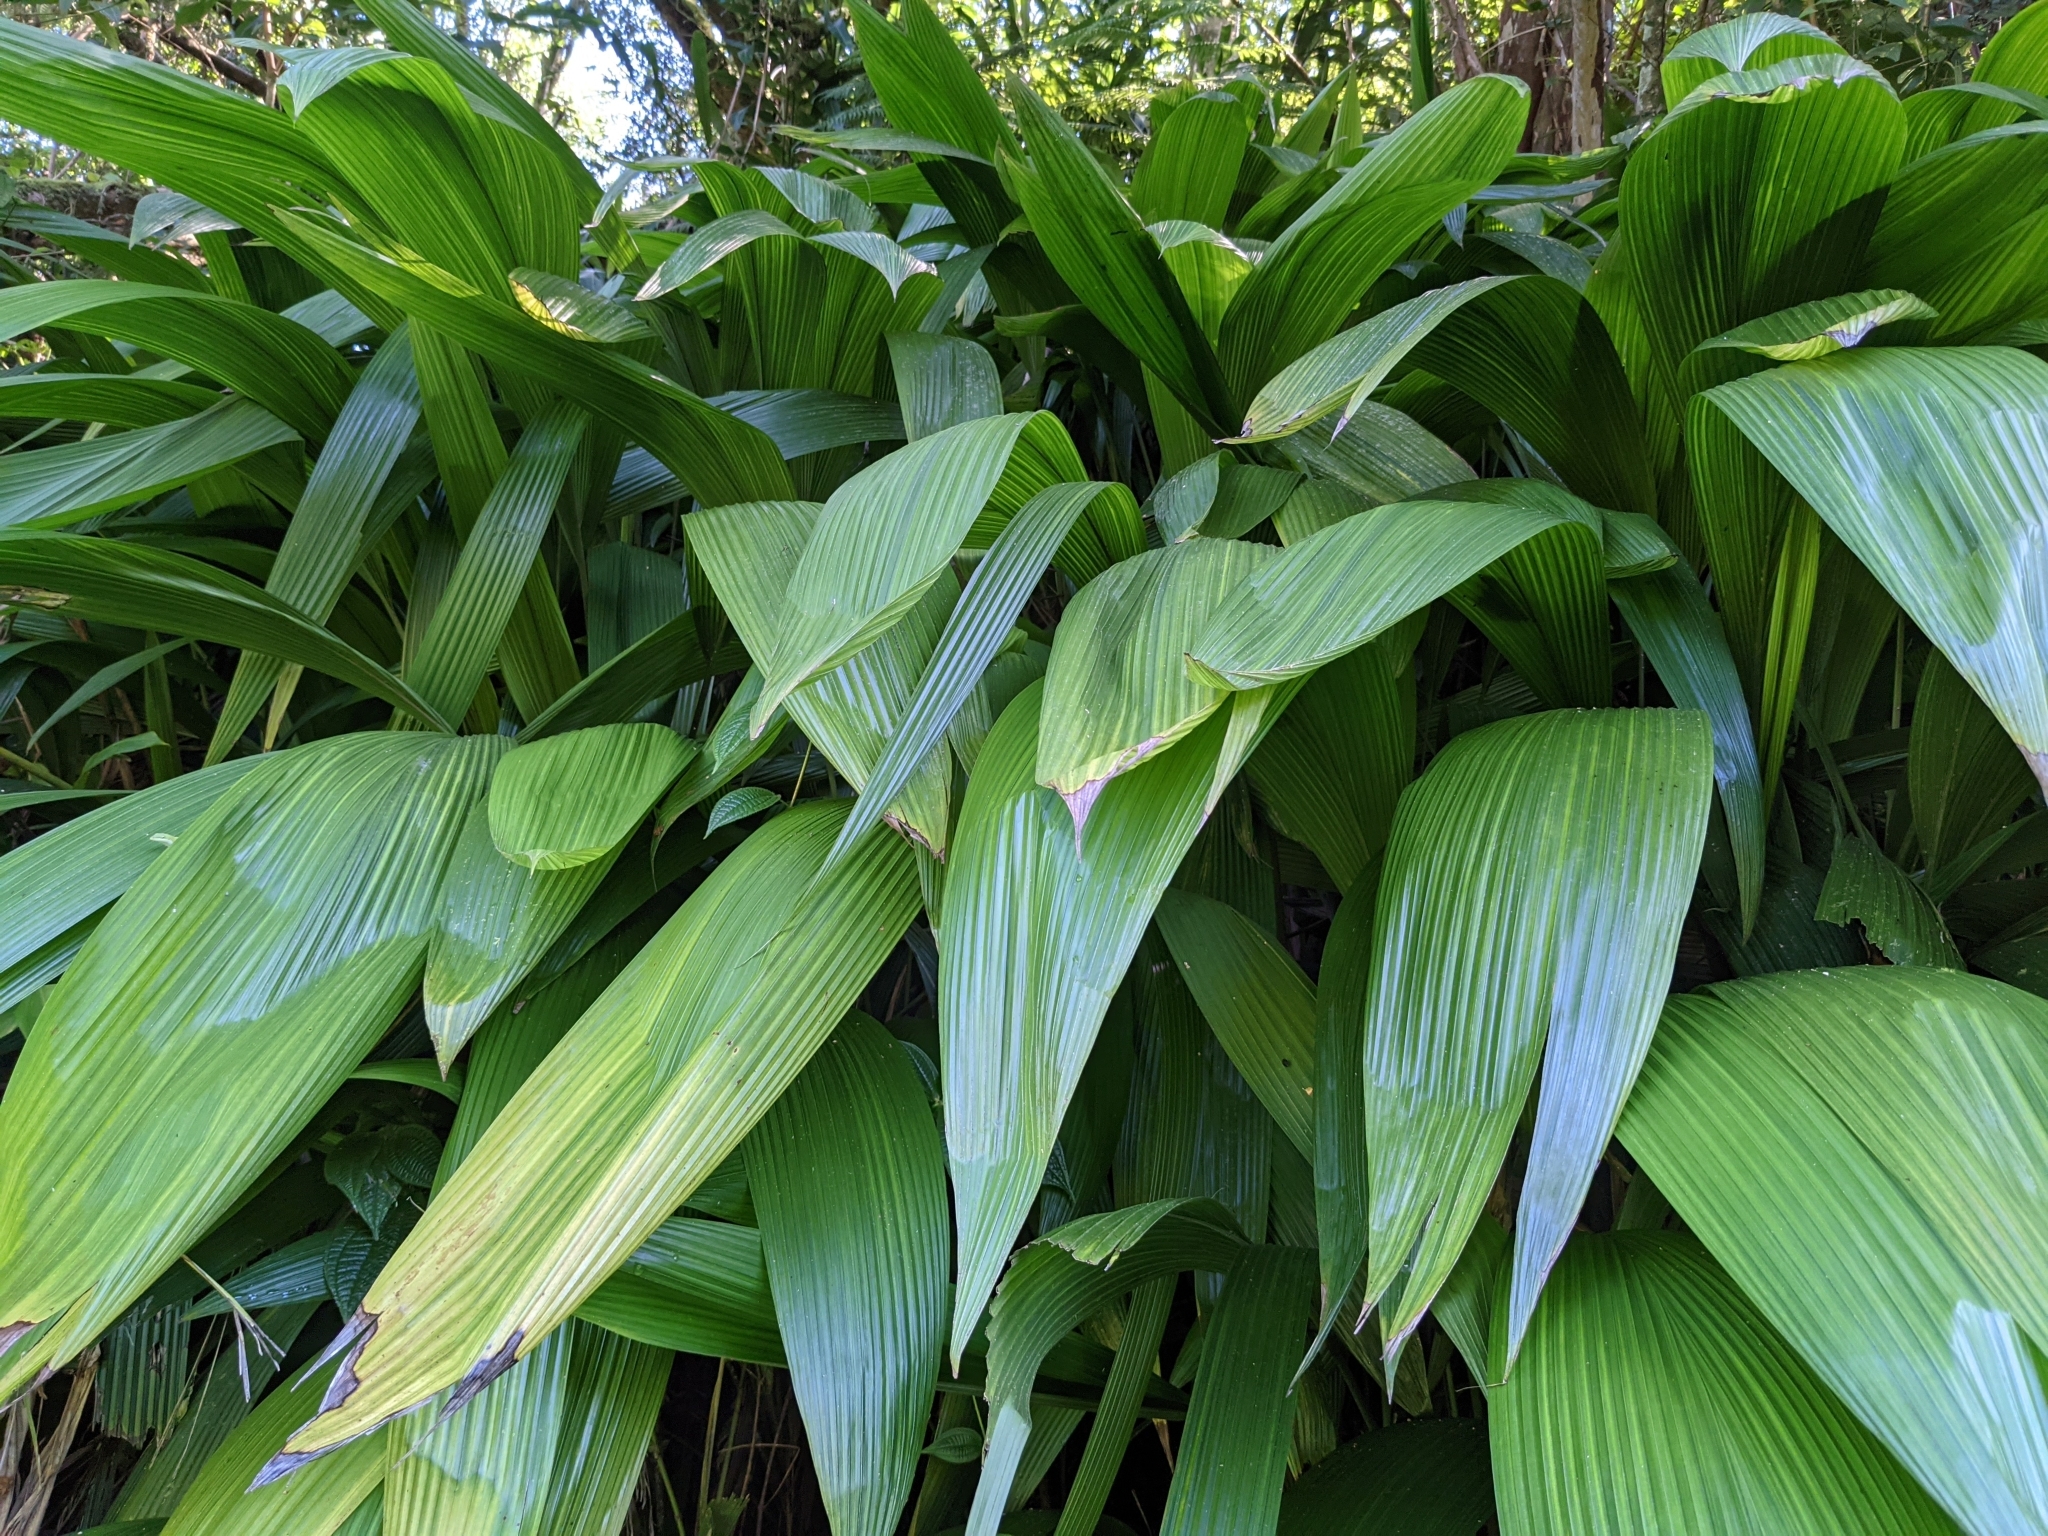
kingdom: Plantae
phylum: Tracheophyta
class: Liliopsida
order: Asparagales
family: Hypoxidaceae
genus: Curculigo
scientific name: Curculigo capitulata
